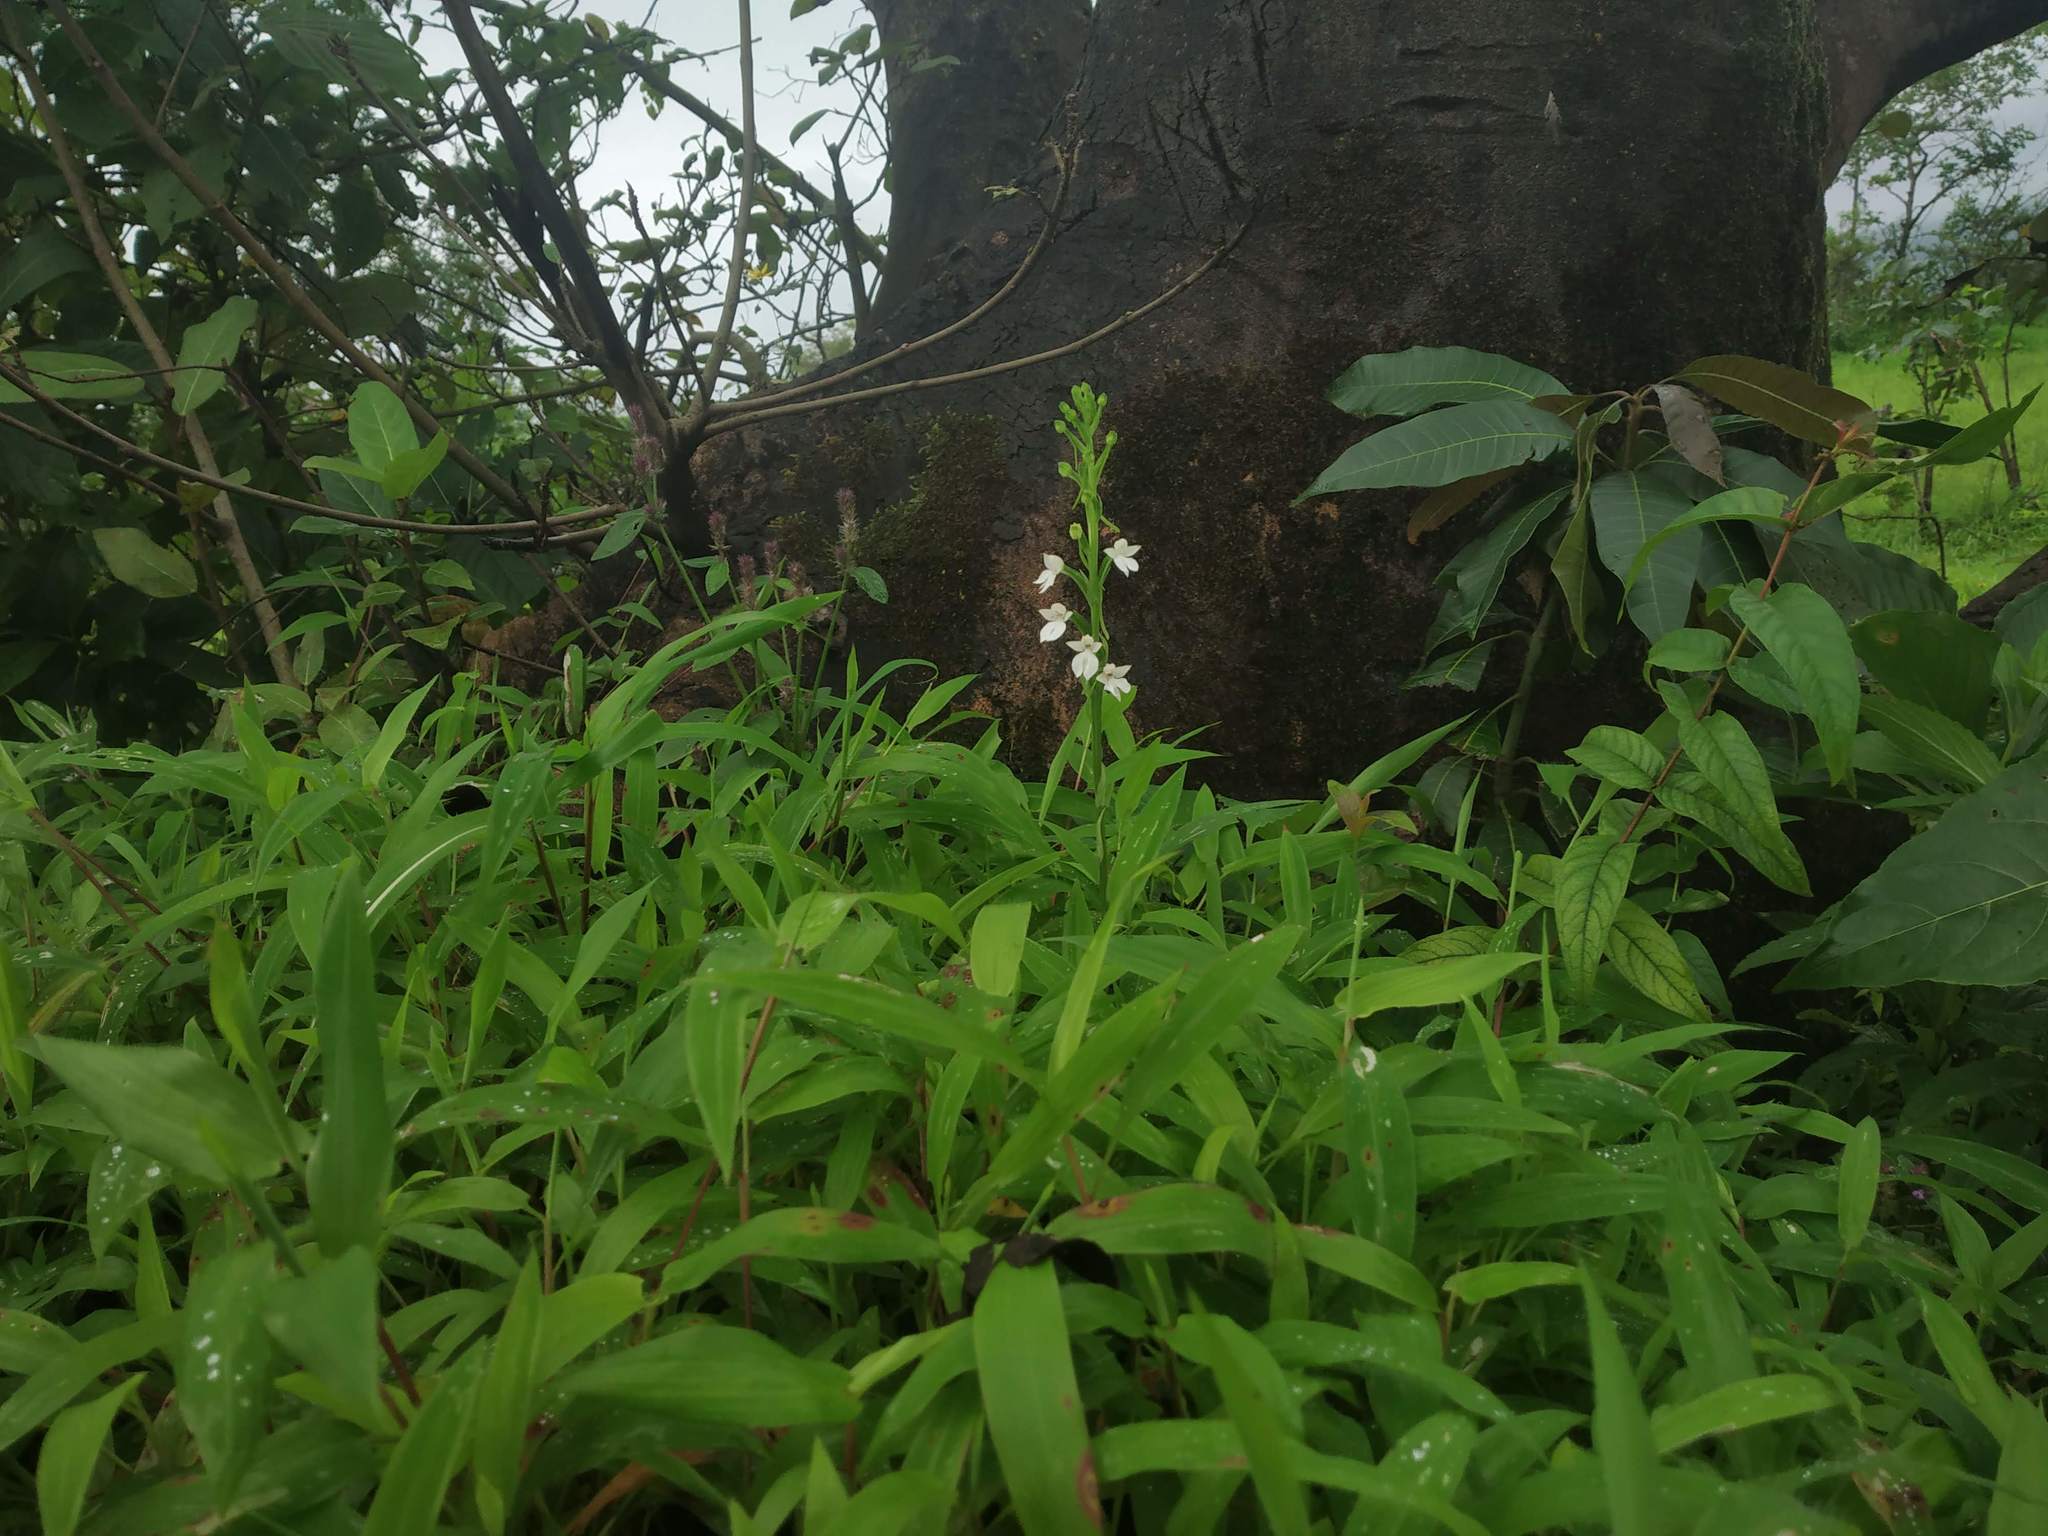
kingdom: Plantae
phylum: Tracheophyta
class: Liliopsida
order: Asparagales
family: Orchidaceae
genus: Habenaria
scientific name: Habenaria plantaginea
